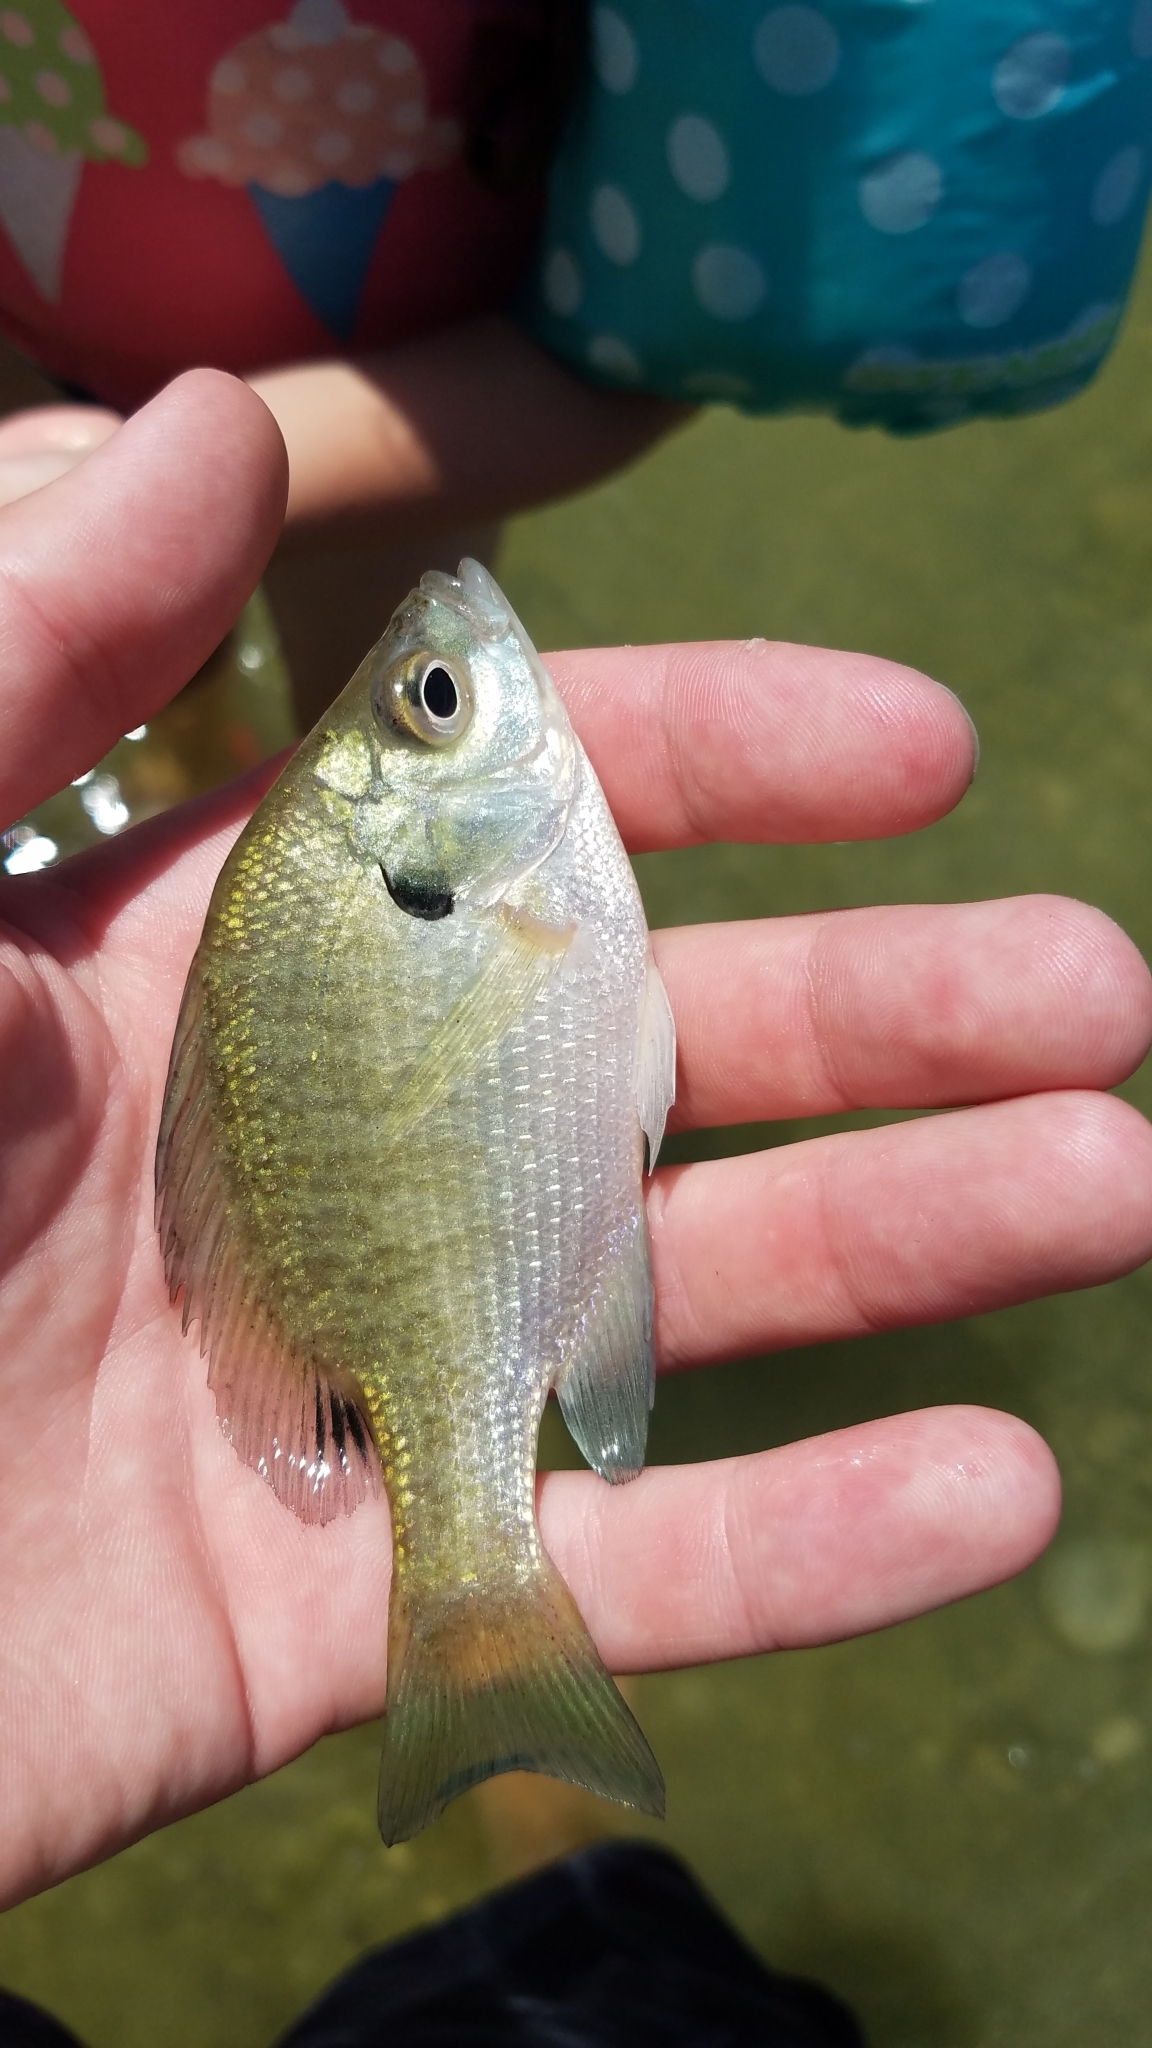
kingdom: Animalia
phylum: Chordata
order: Perciformes
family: Centrarchidae
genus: Lepomis
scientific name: Lepomis macrochirus
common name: Bluegill
